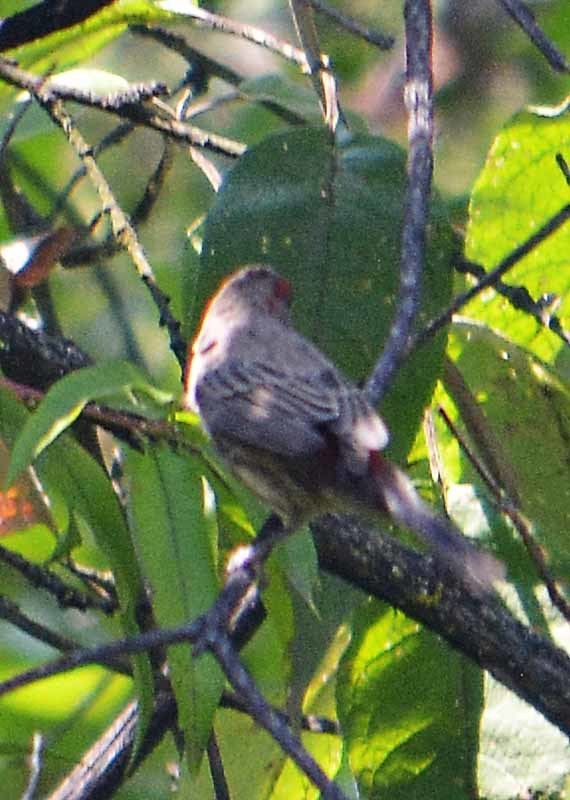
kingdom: Animalia
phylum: Chordata
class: Aves
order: Passeriformes
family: Fringillidae
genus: Haemorhous
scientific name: Haemorhous mexicanus
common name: House finch
